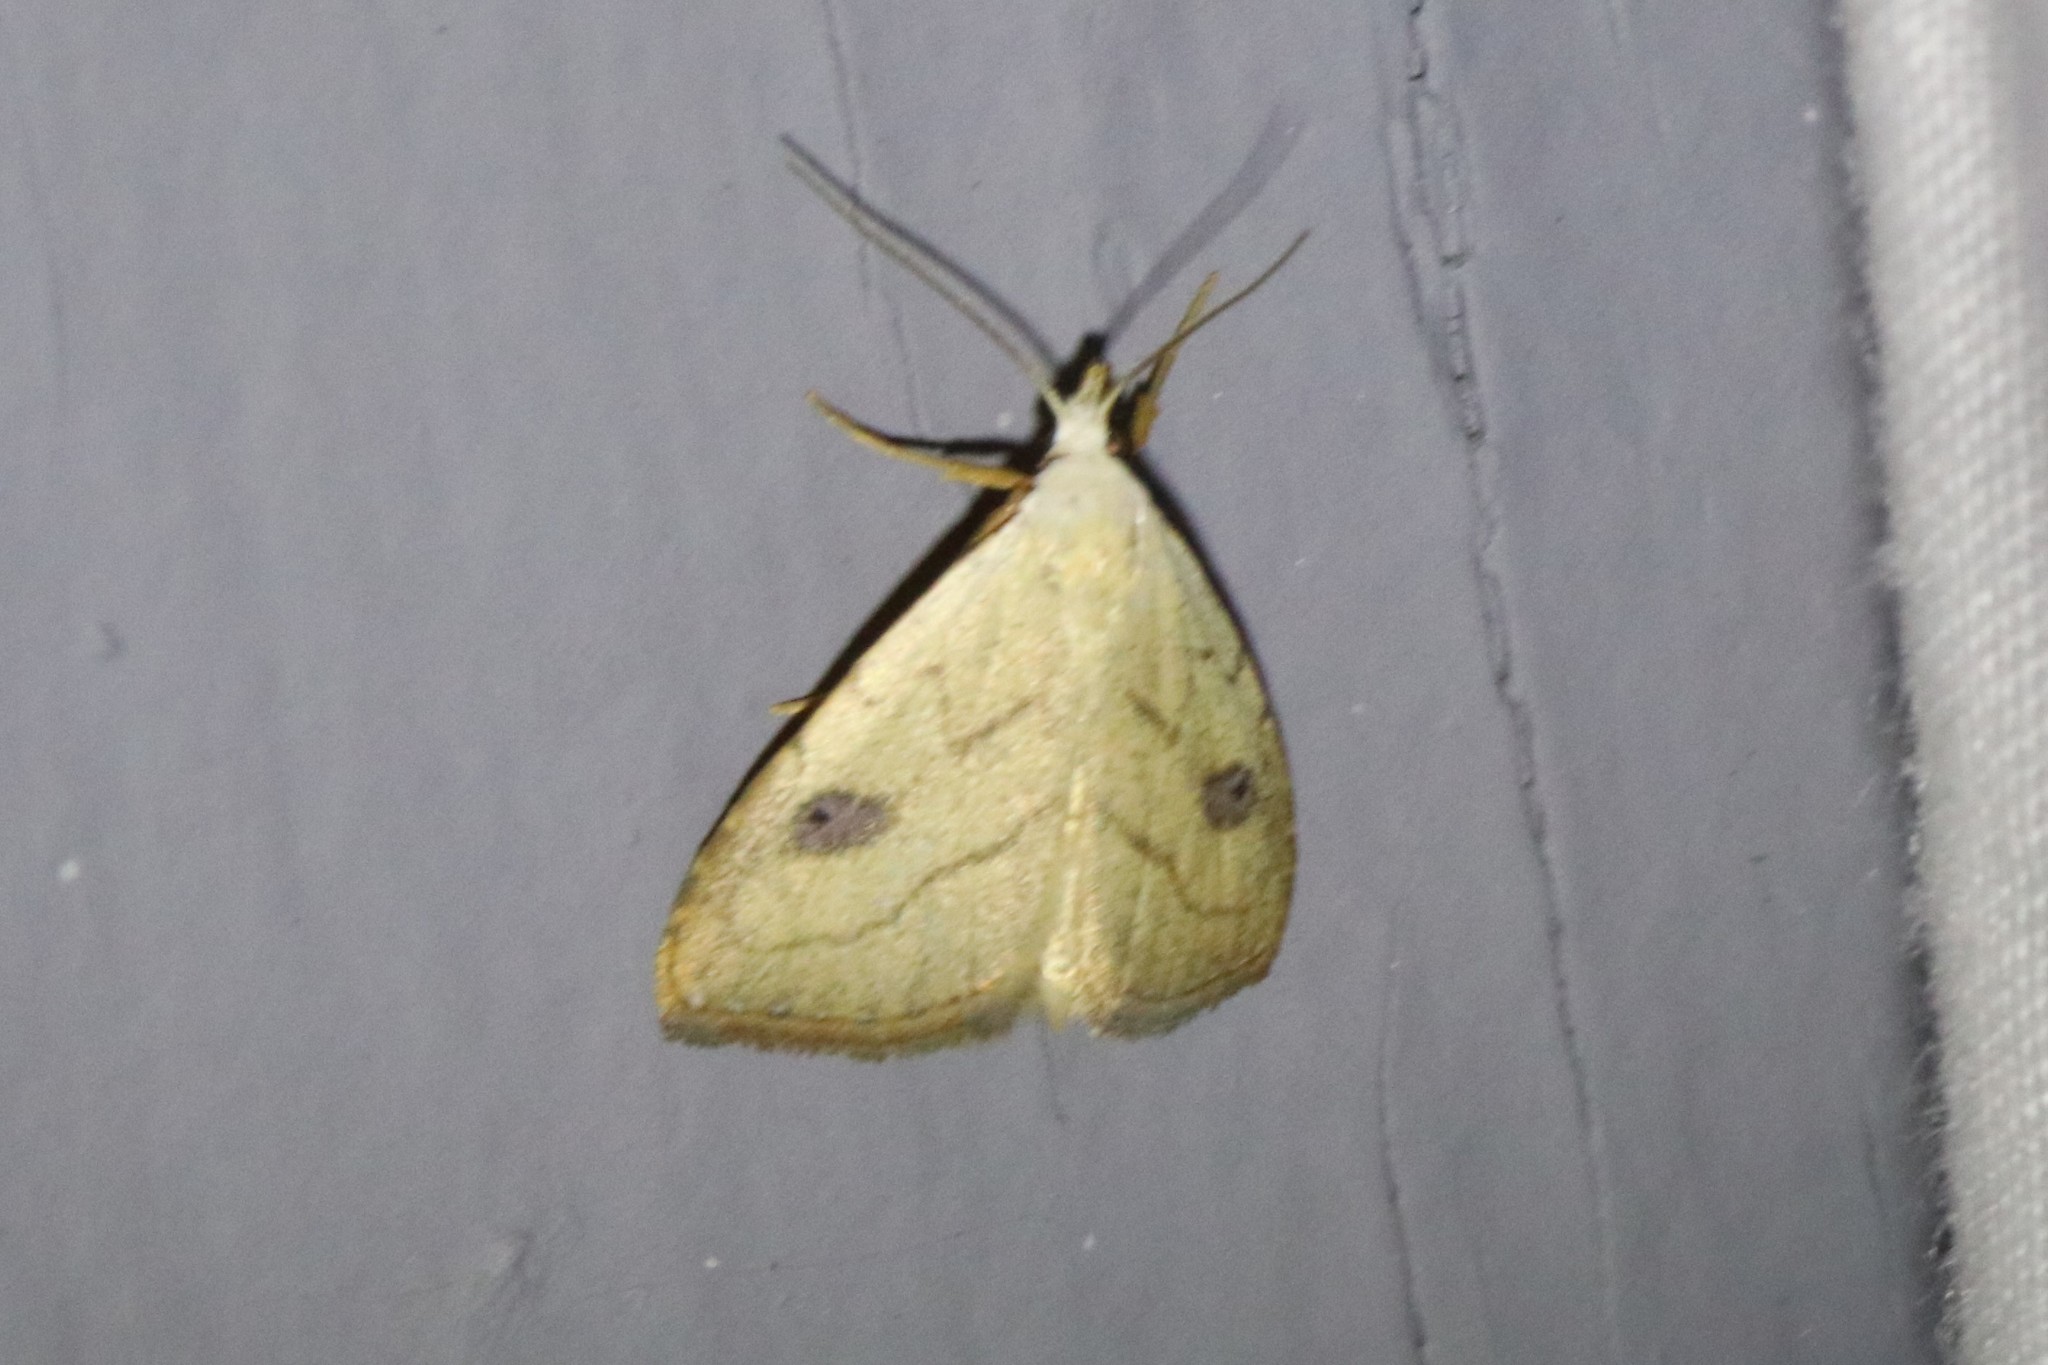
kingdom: Animalia
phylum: Arthropoda
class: Insecta
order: Lepidoptera
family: Erebidae
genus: Rivula
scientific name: Rivula propinqualis
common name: Spotted grass moth
